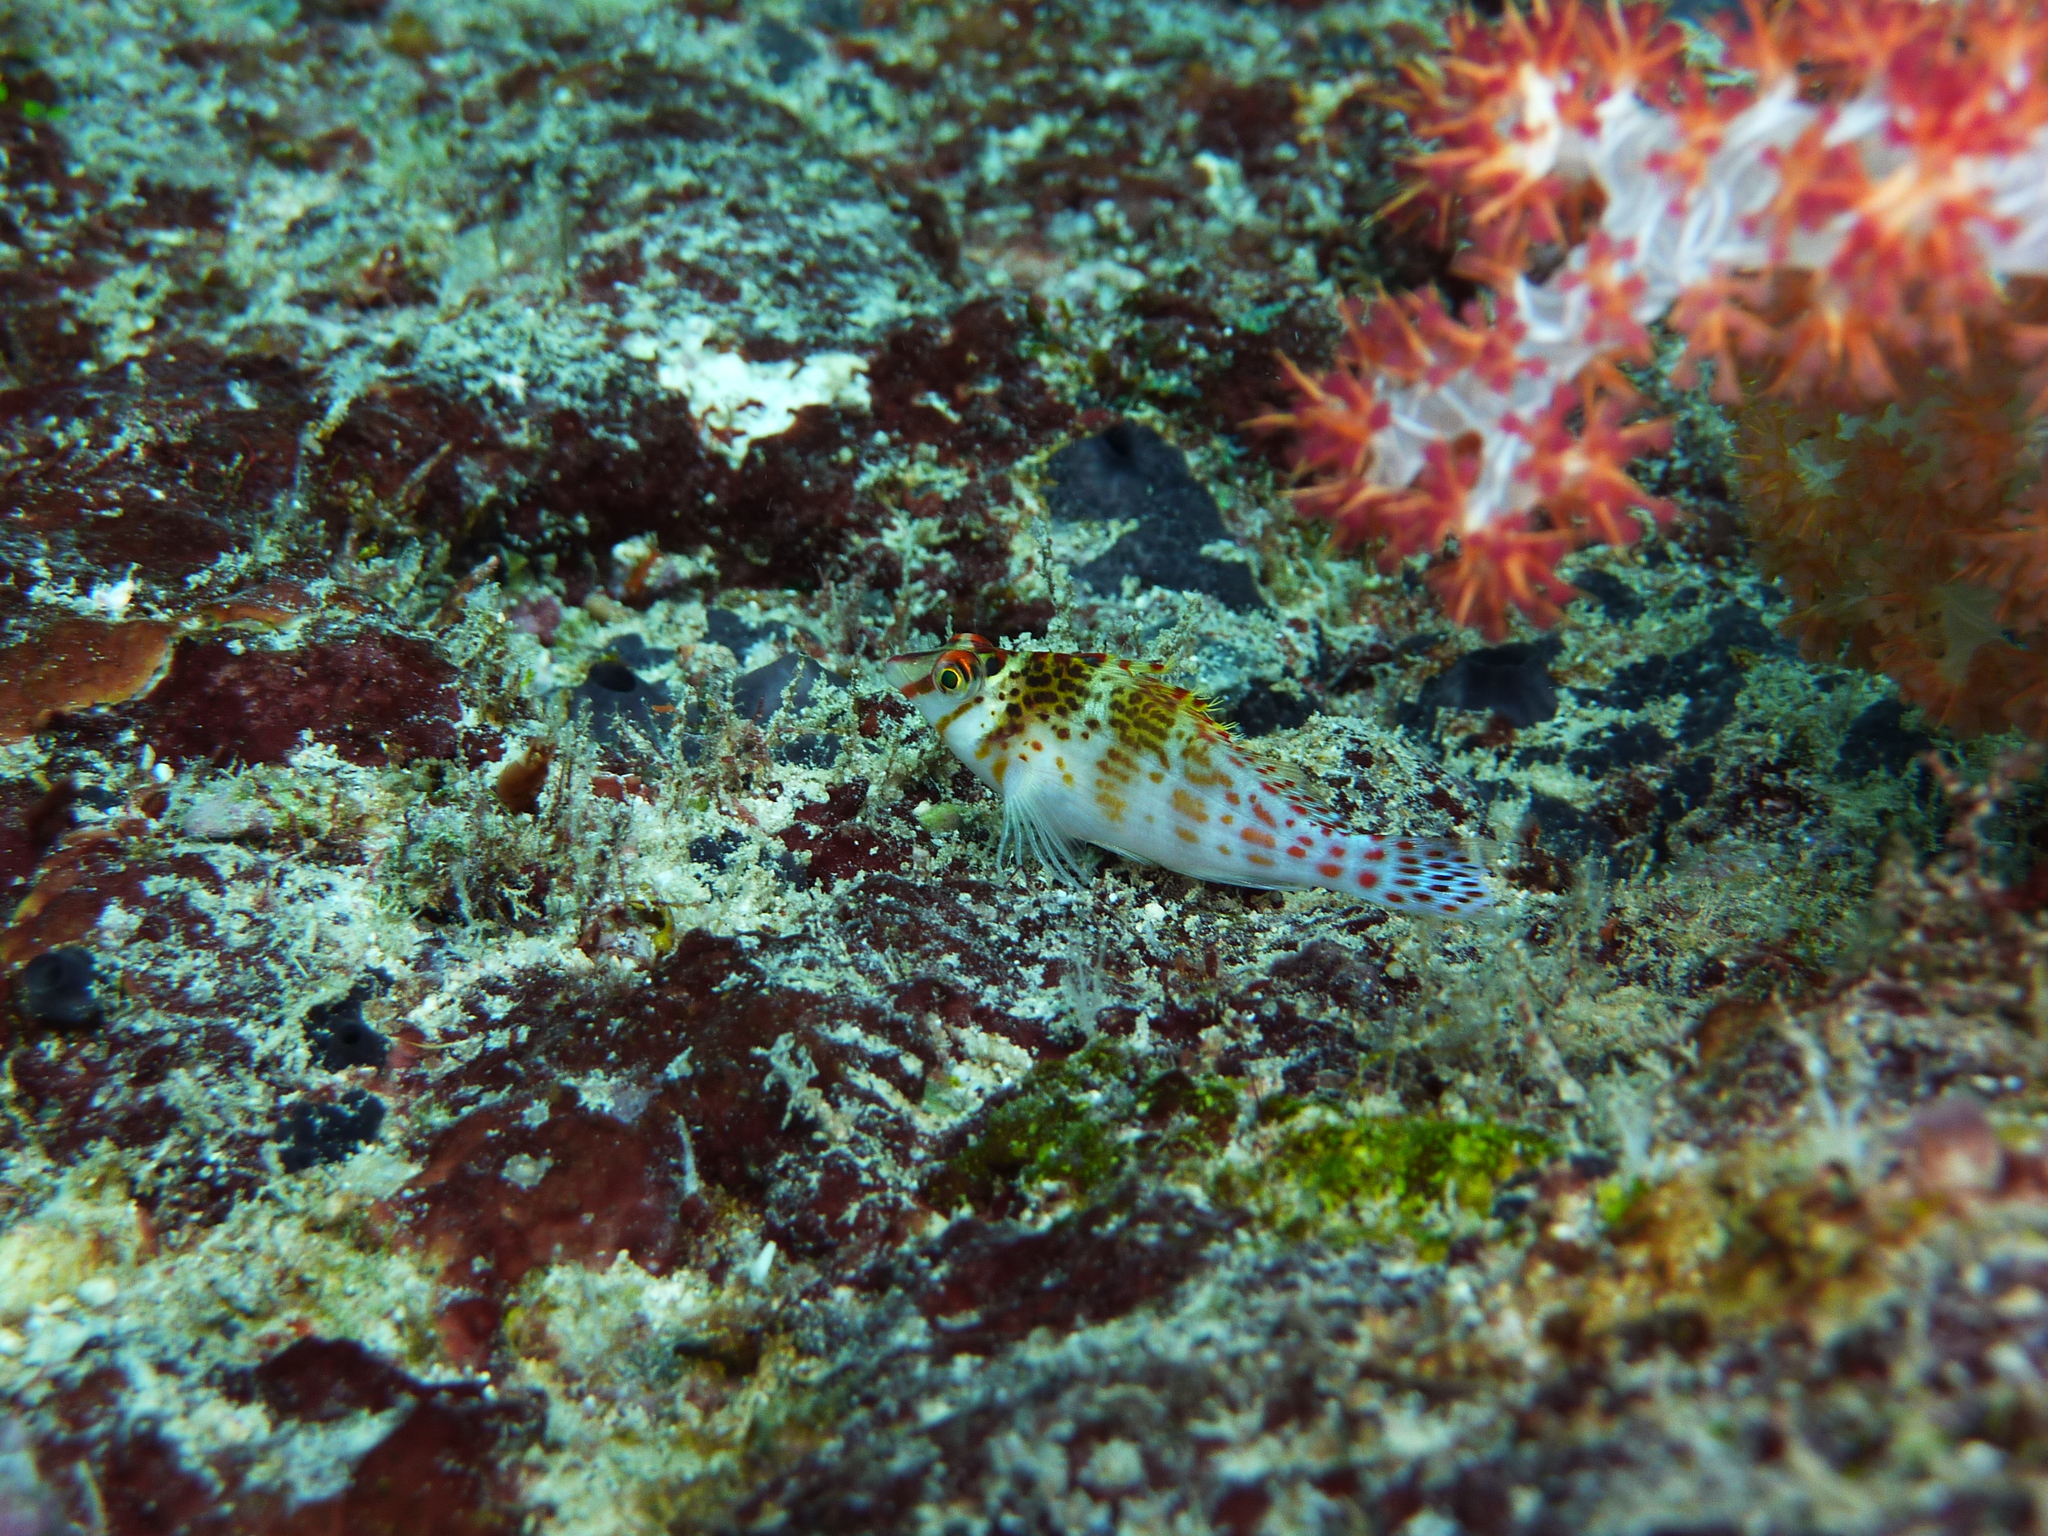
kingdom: Animalia
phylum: Chordata
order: Perciformes
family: Cirrhitidae
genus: Cirrhitichthys
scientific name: Cirrhitichthys falco
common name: Coral hawkfish
